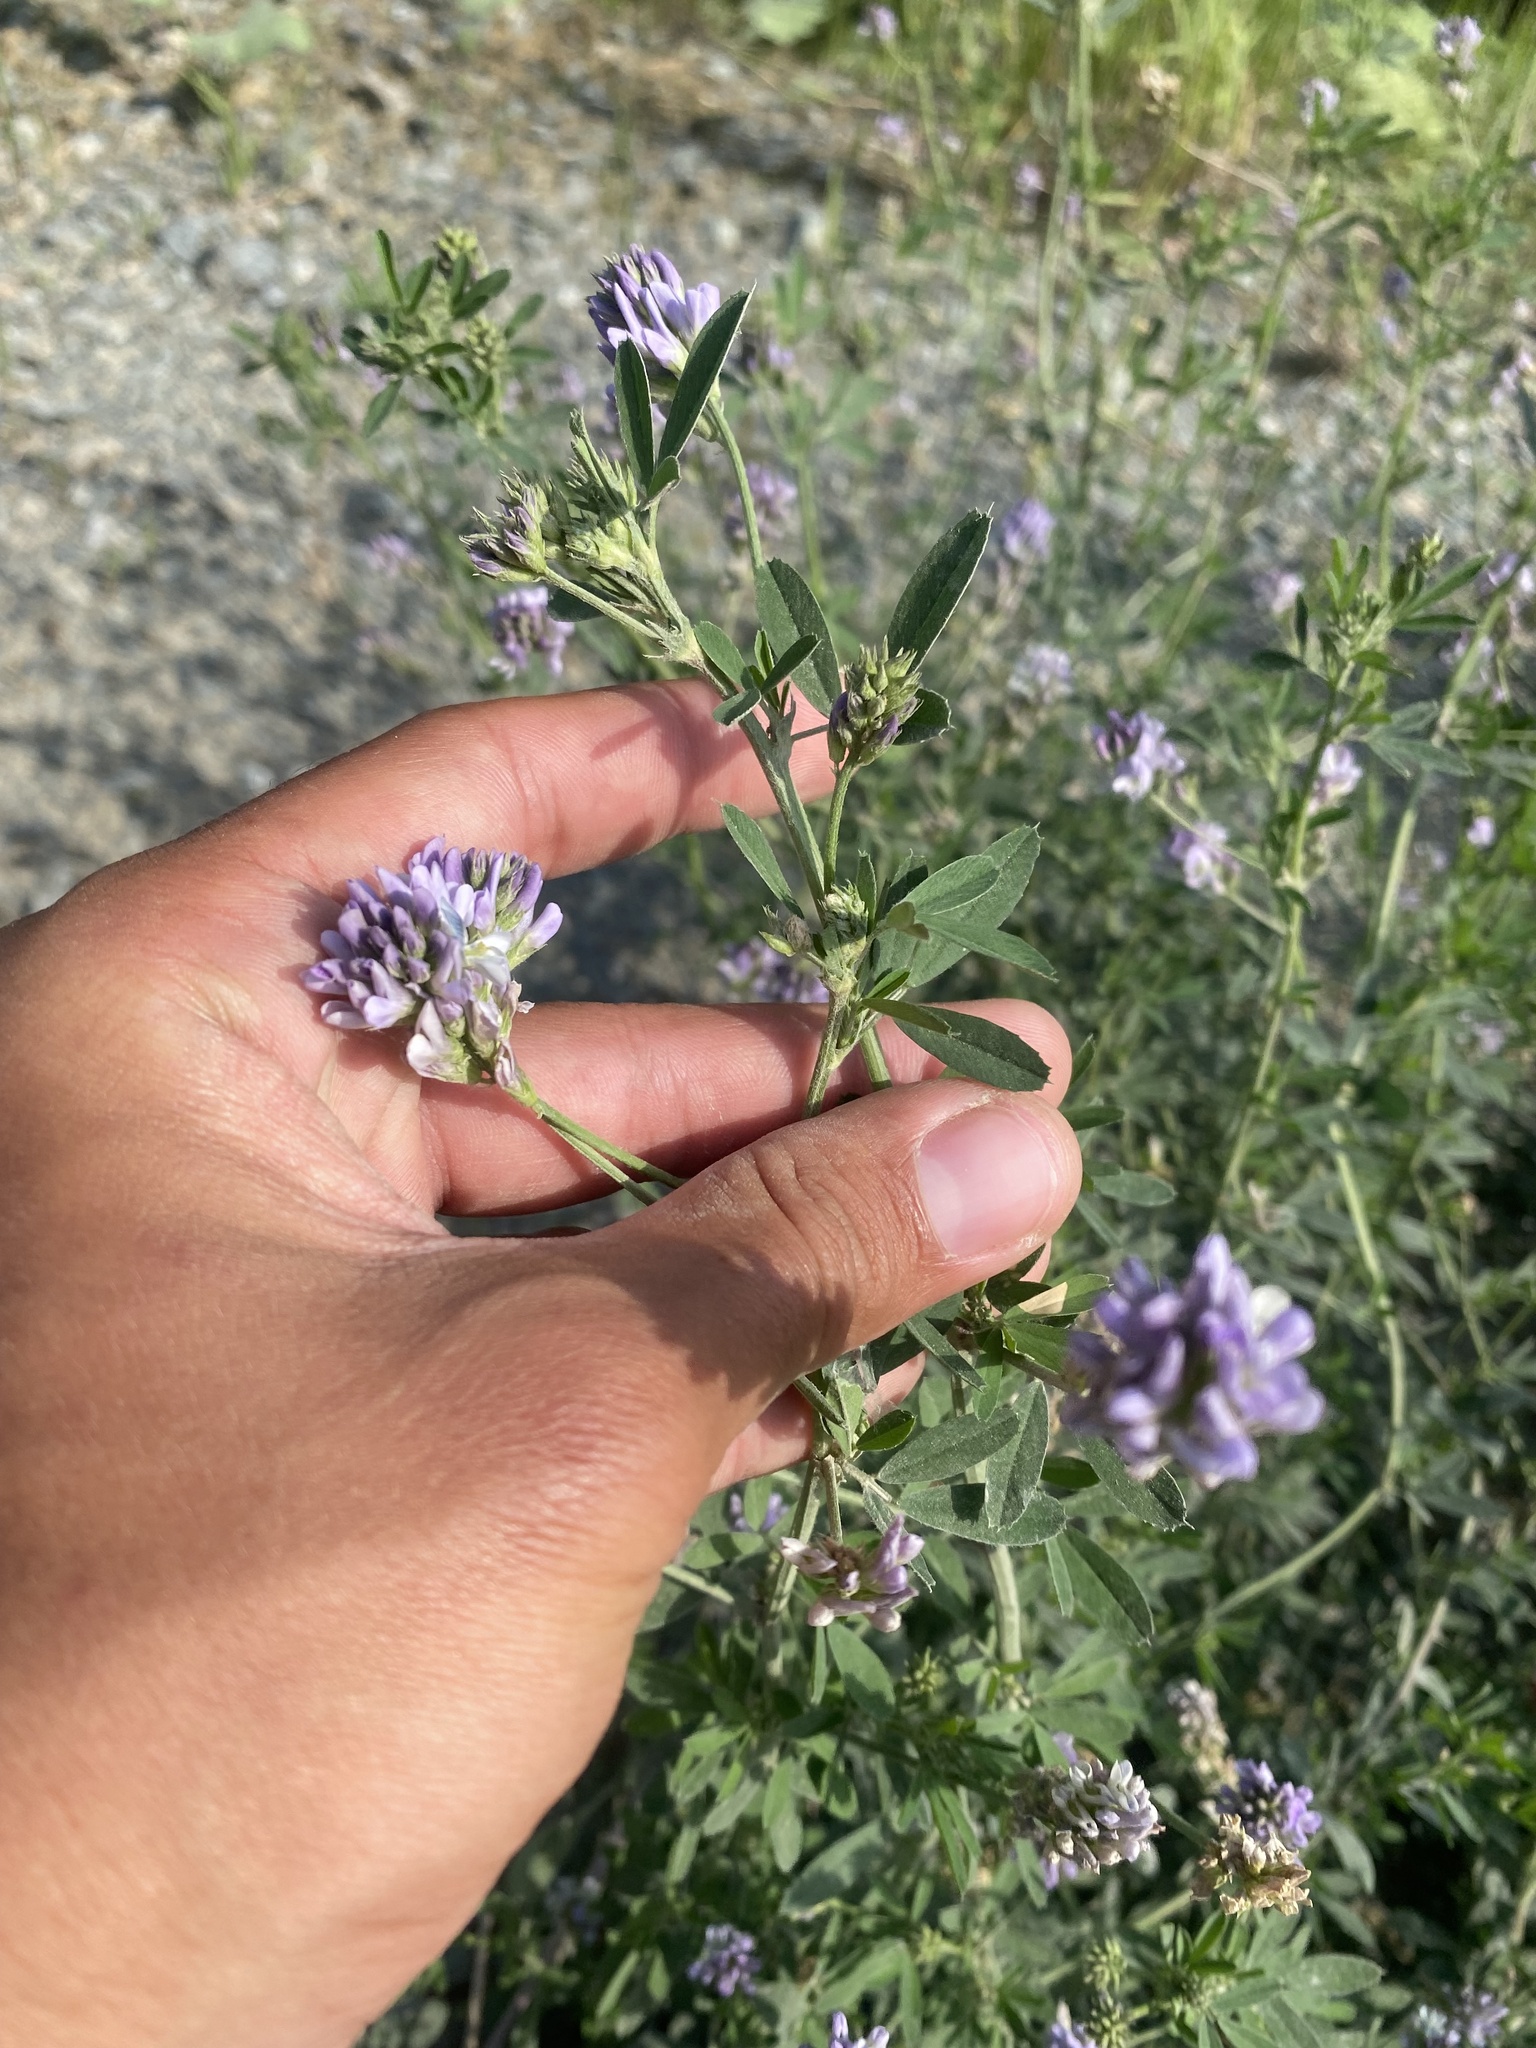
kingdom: Plantae
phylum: Tracheophyta
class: Magnoliopsida
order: Fabales
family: Fabaceae
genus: Medicago
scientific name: Medicago sativa
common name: Alfalfa
